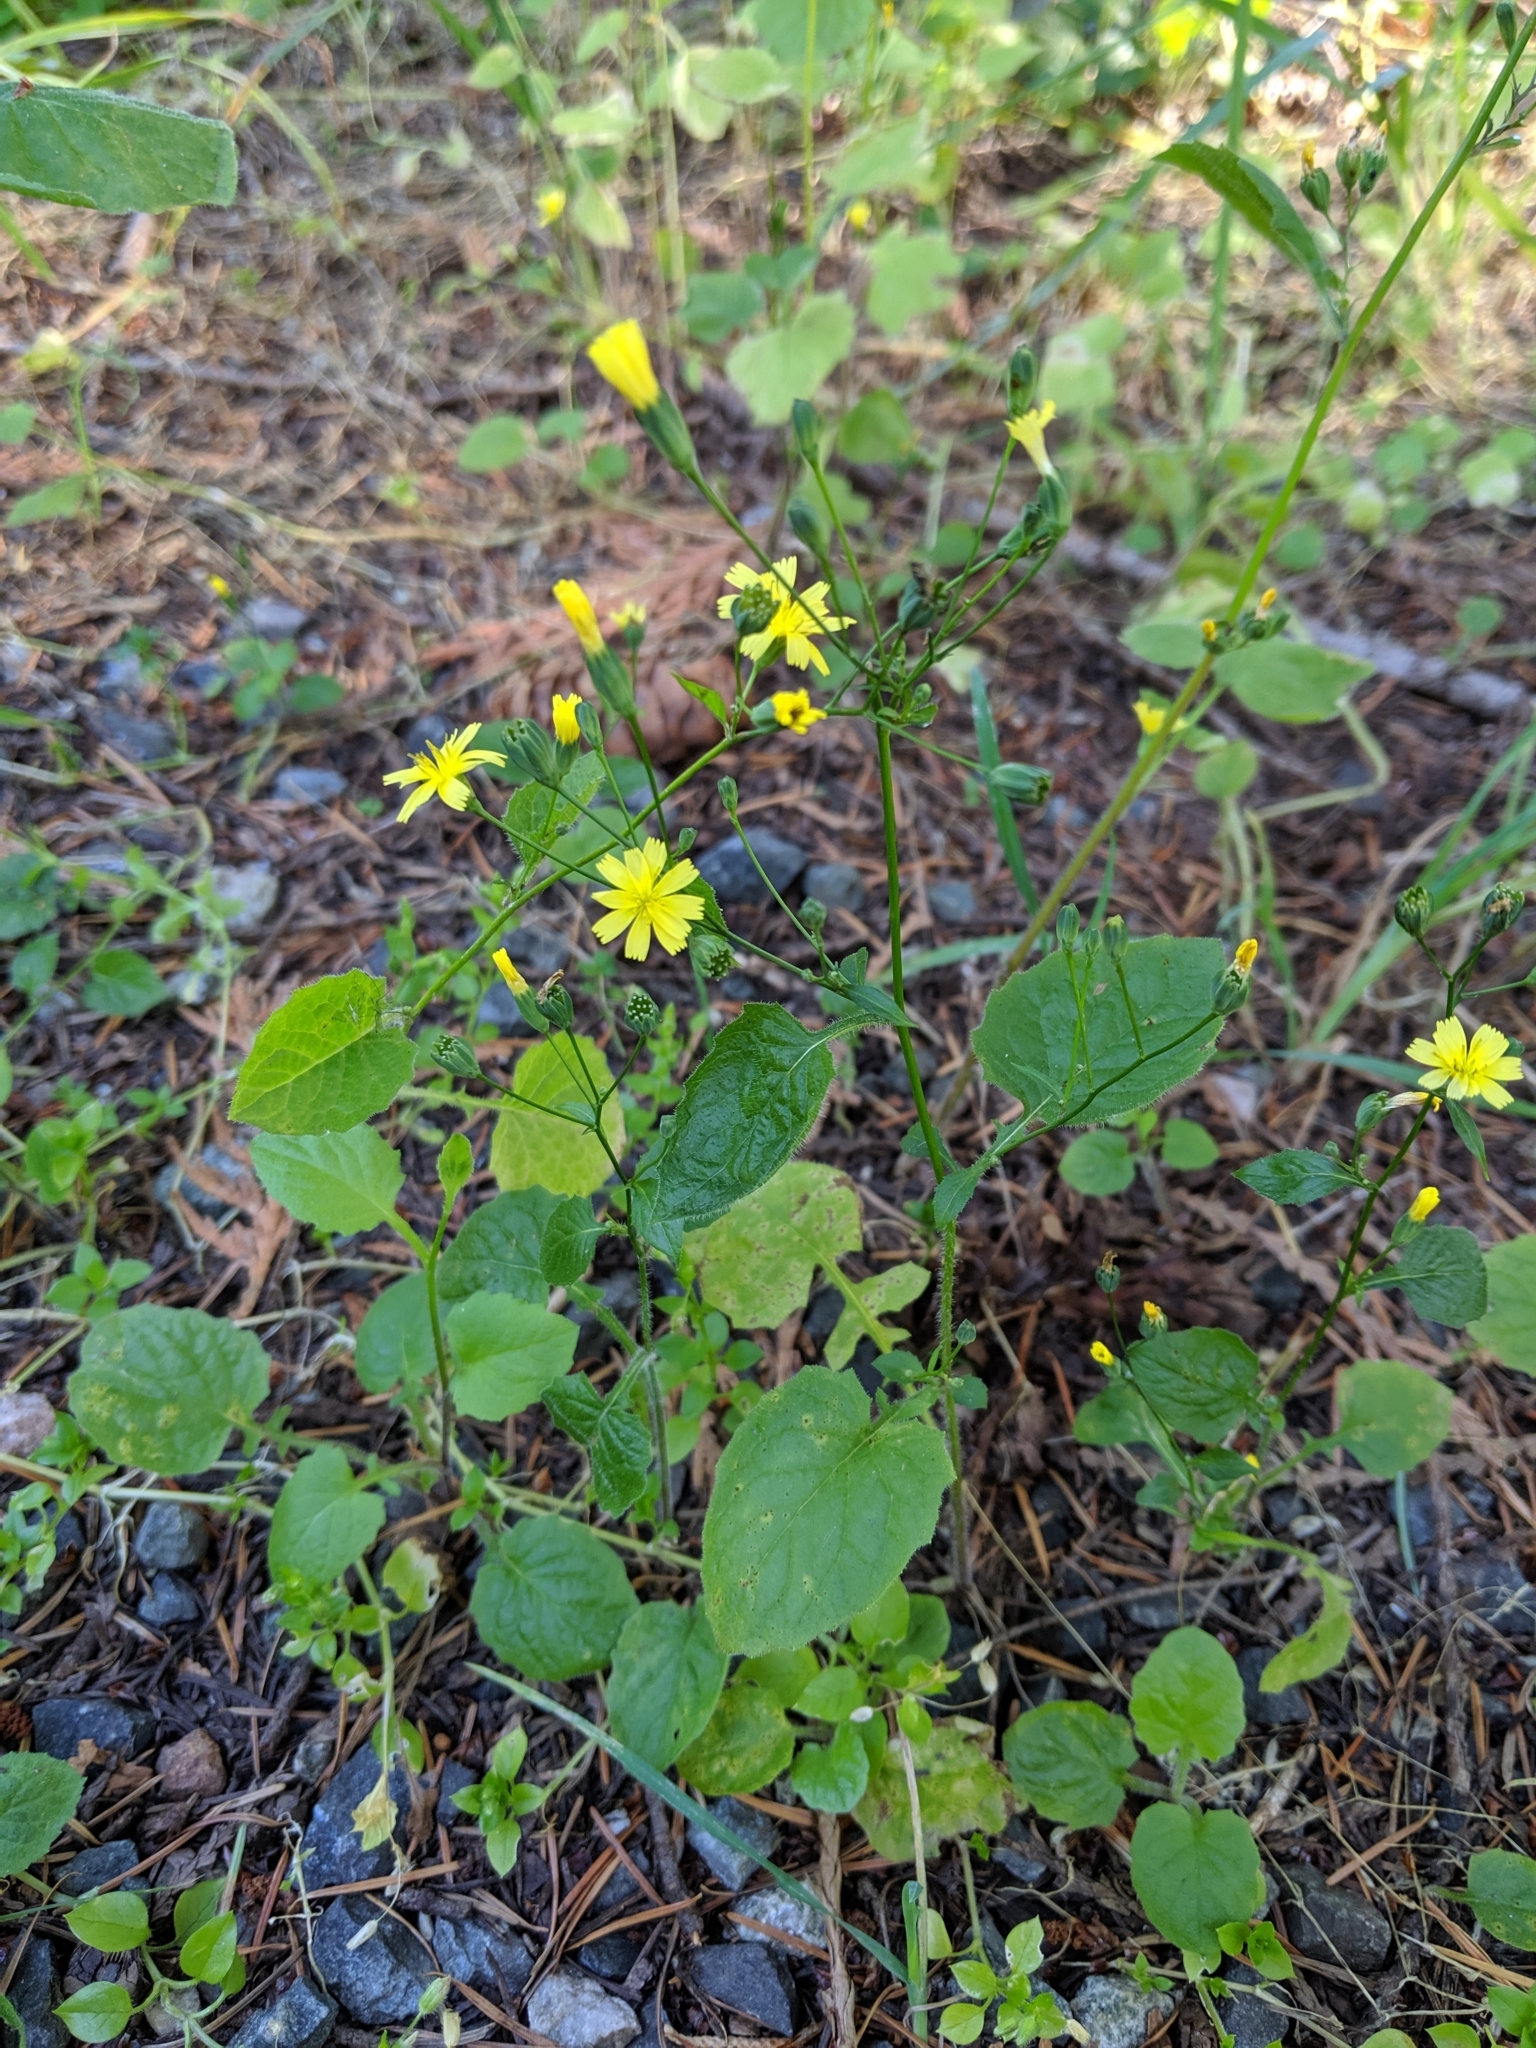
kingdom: Plantae
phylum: Tracheophyta
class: Magnoliopsida
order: Asterales
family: Asteraceae
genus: Lapsana
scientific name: Lapsana communis
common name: Nipplewort
